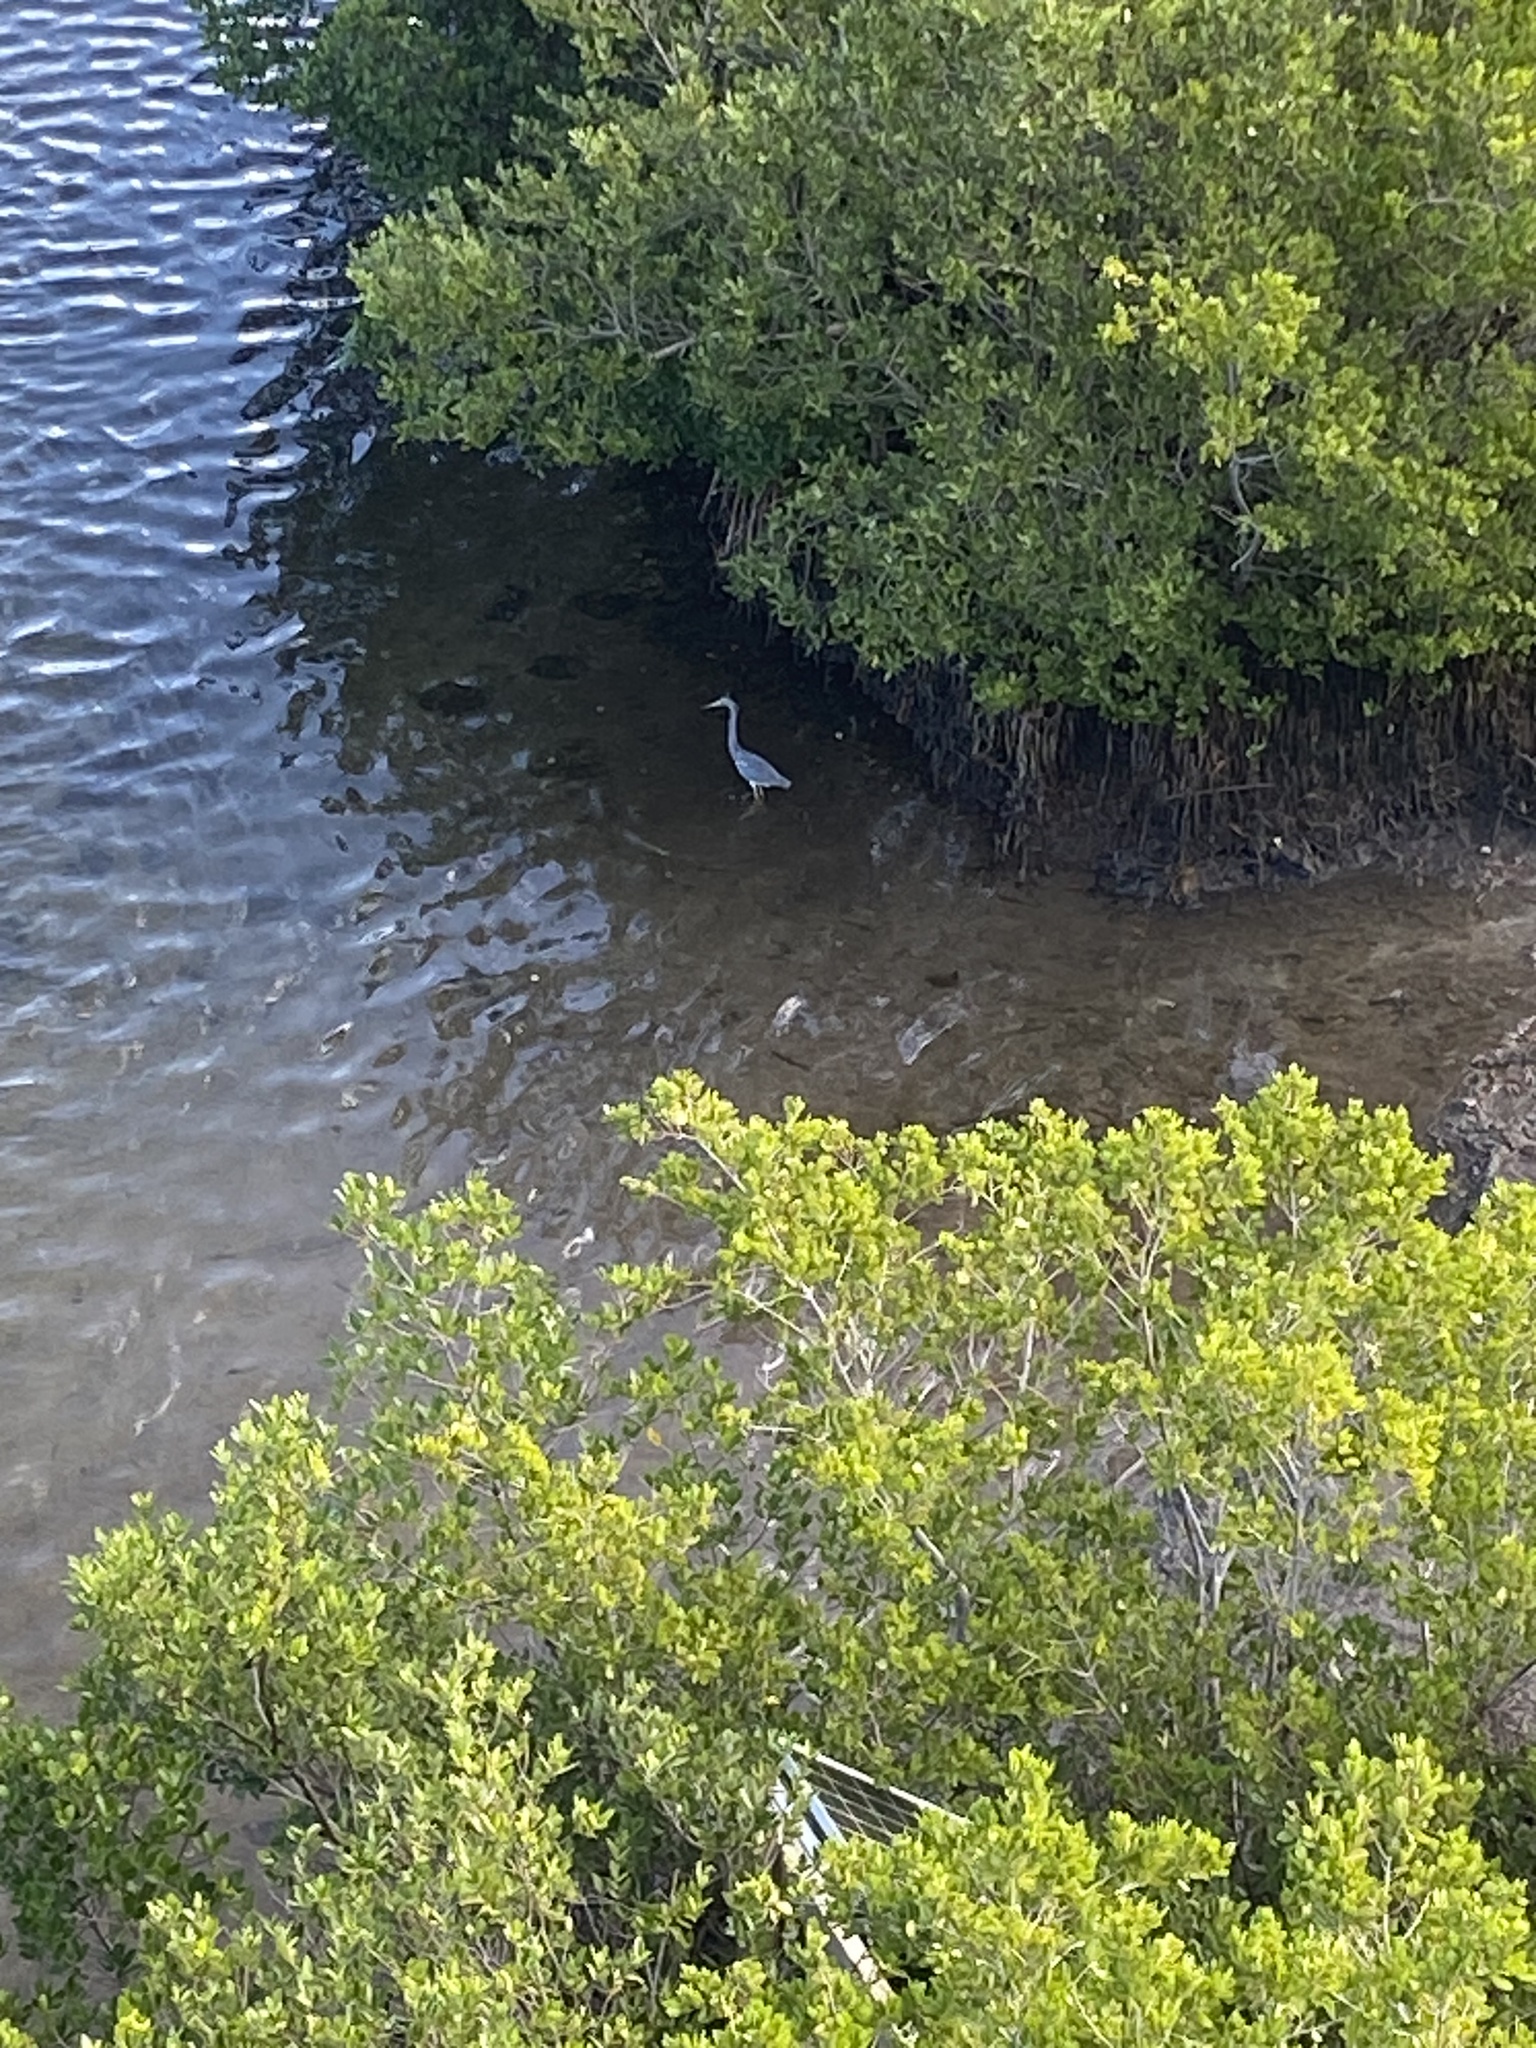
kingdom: Animalia
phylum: Chordata
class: Aves
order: Pelecaniformes
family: Ardeidae
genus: Egretta
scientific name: Egretta tricolor
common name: Tricolored heron
